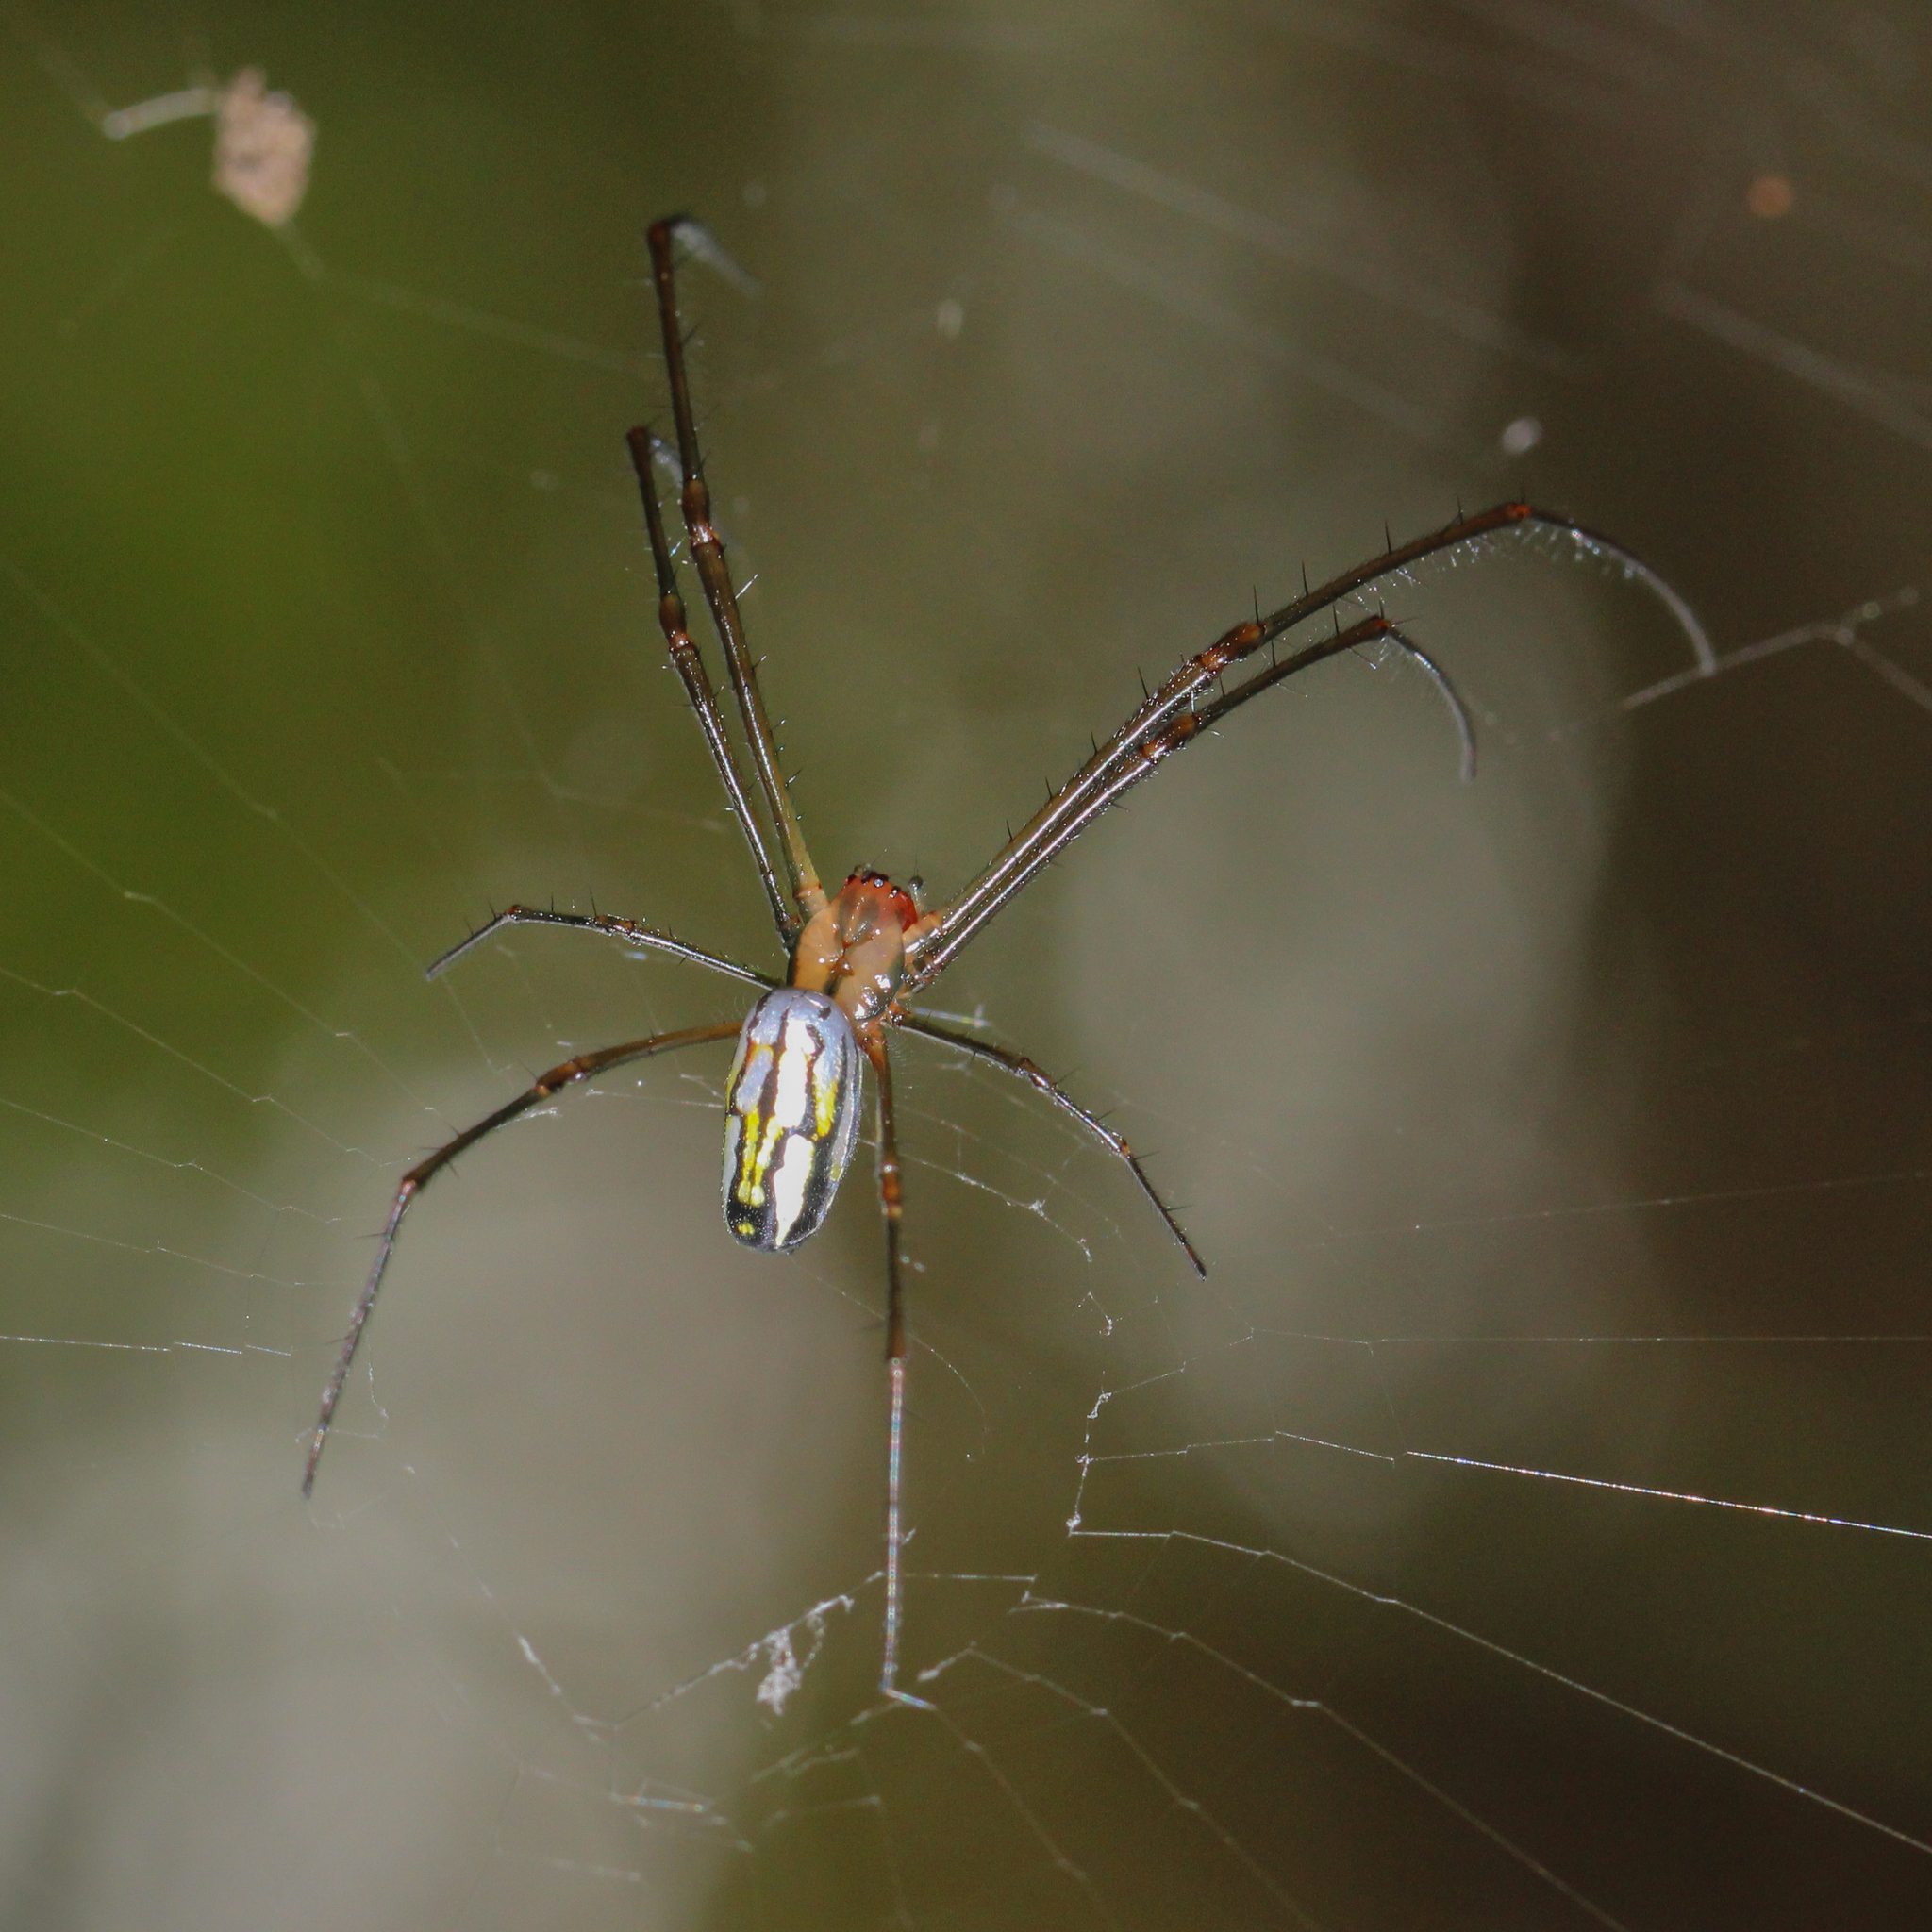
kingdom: Animalia
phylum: Arthropoda
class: Arachnida
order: Araneae
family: Tetragnathidae
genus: Leucauge
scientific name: Leucauge argyra
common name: Longjawed orb weavers
